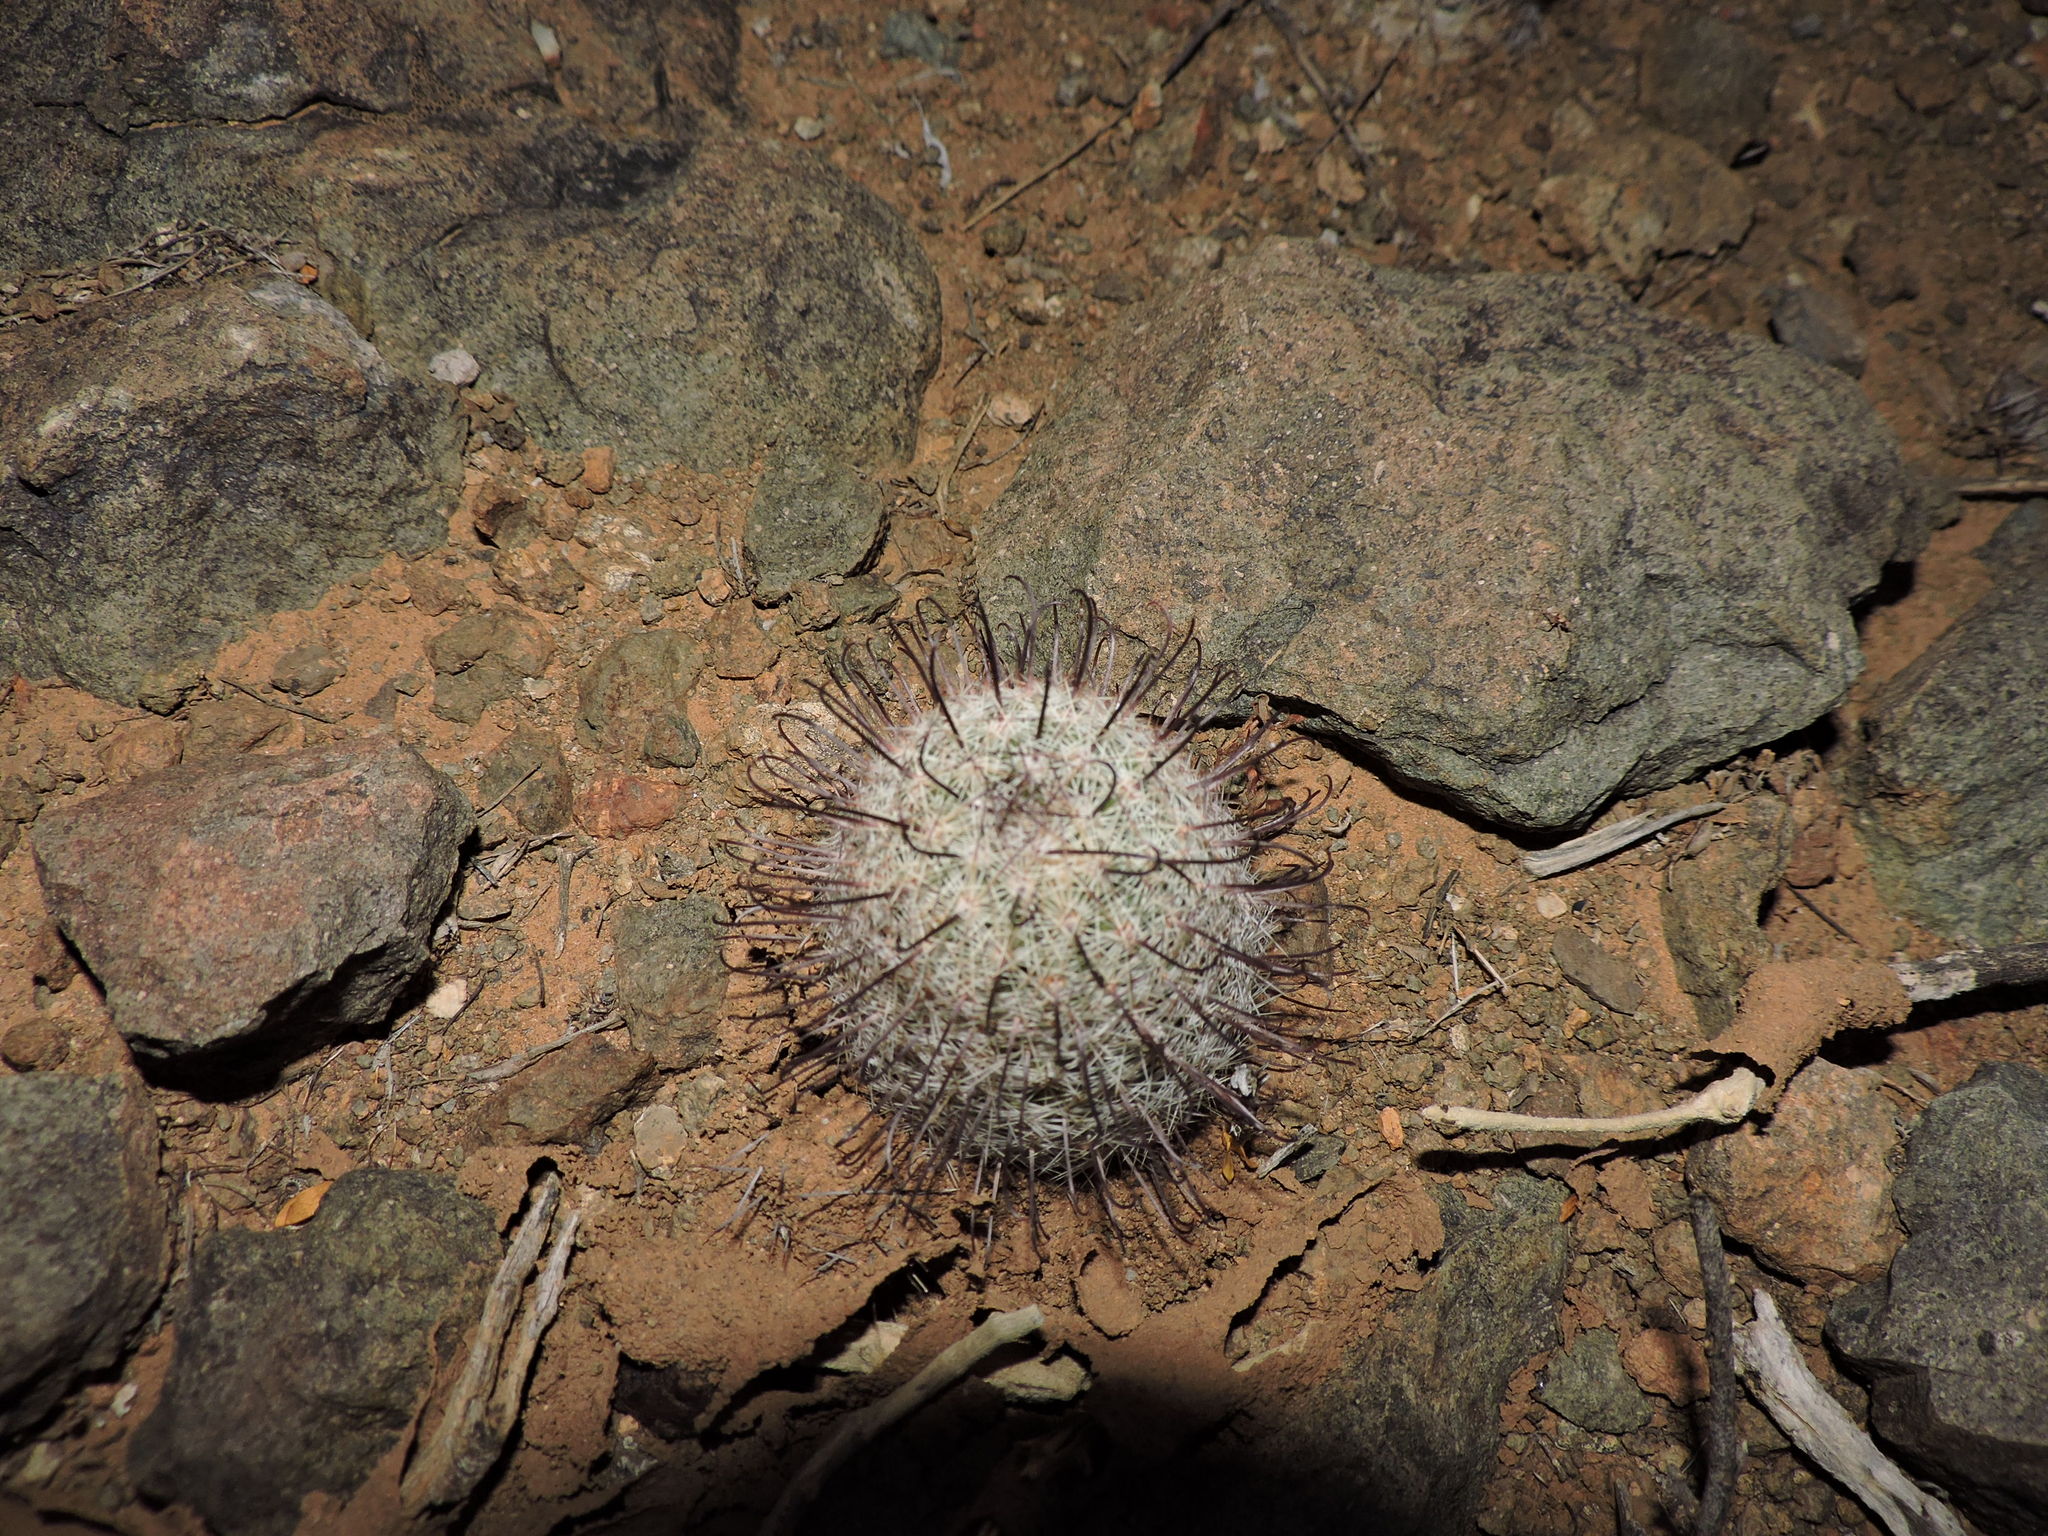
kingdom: Plantae
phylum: Tracheophyta
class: Magnoliopsida
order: Caryophyllales
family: Cactaceae
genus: Cochemiea
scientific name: Cochemiea grahamii
